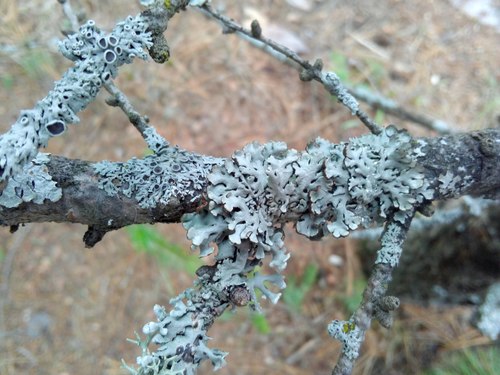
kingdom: Fungi
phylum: Ascomycota
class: Lecanoromycetes
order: Lecanorales
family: Parmeliaceae
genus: Hypogymnia
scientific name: Hypogymnia physodes
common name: Dark crottle
